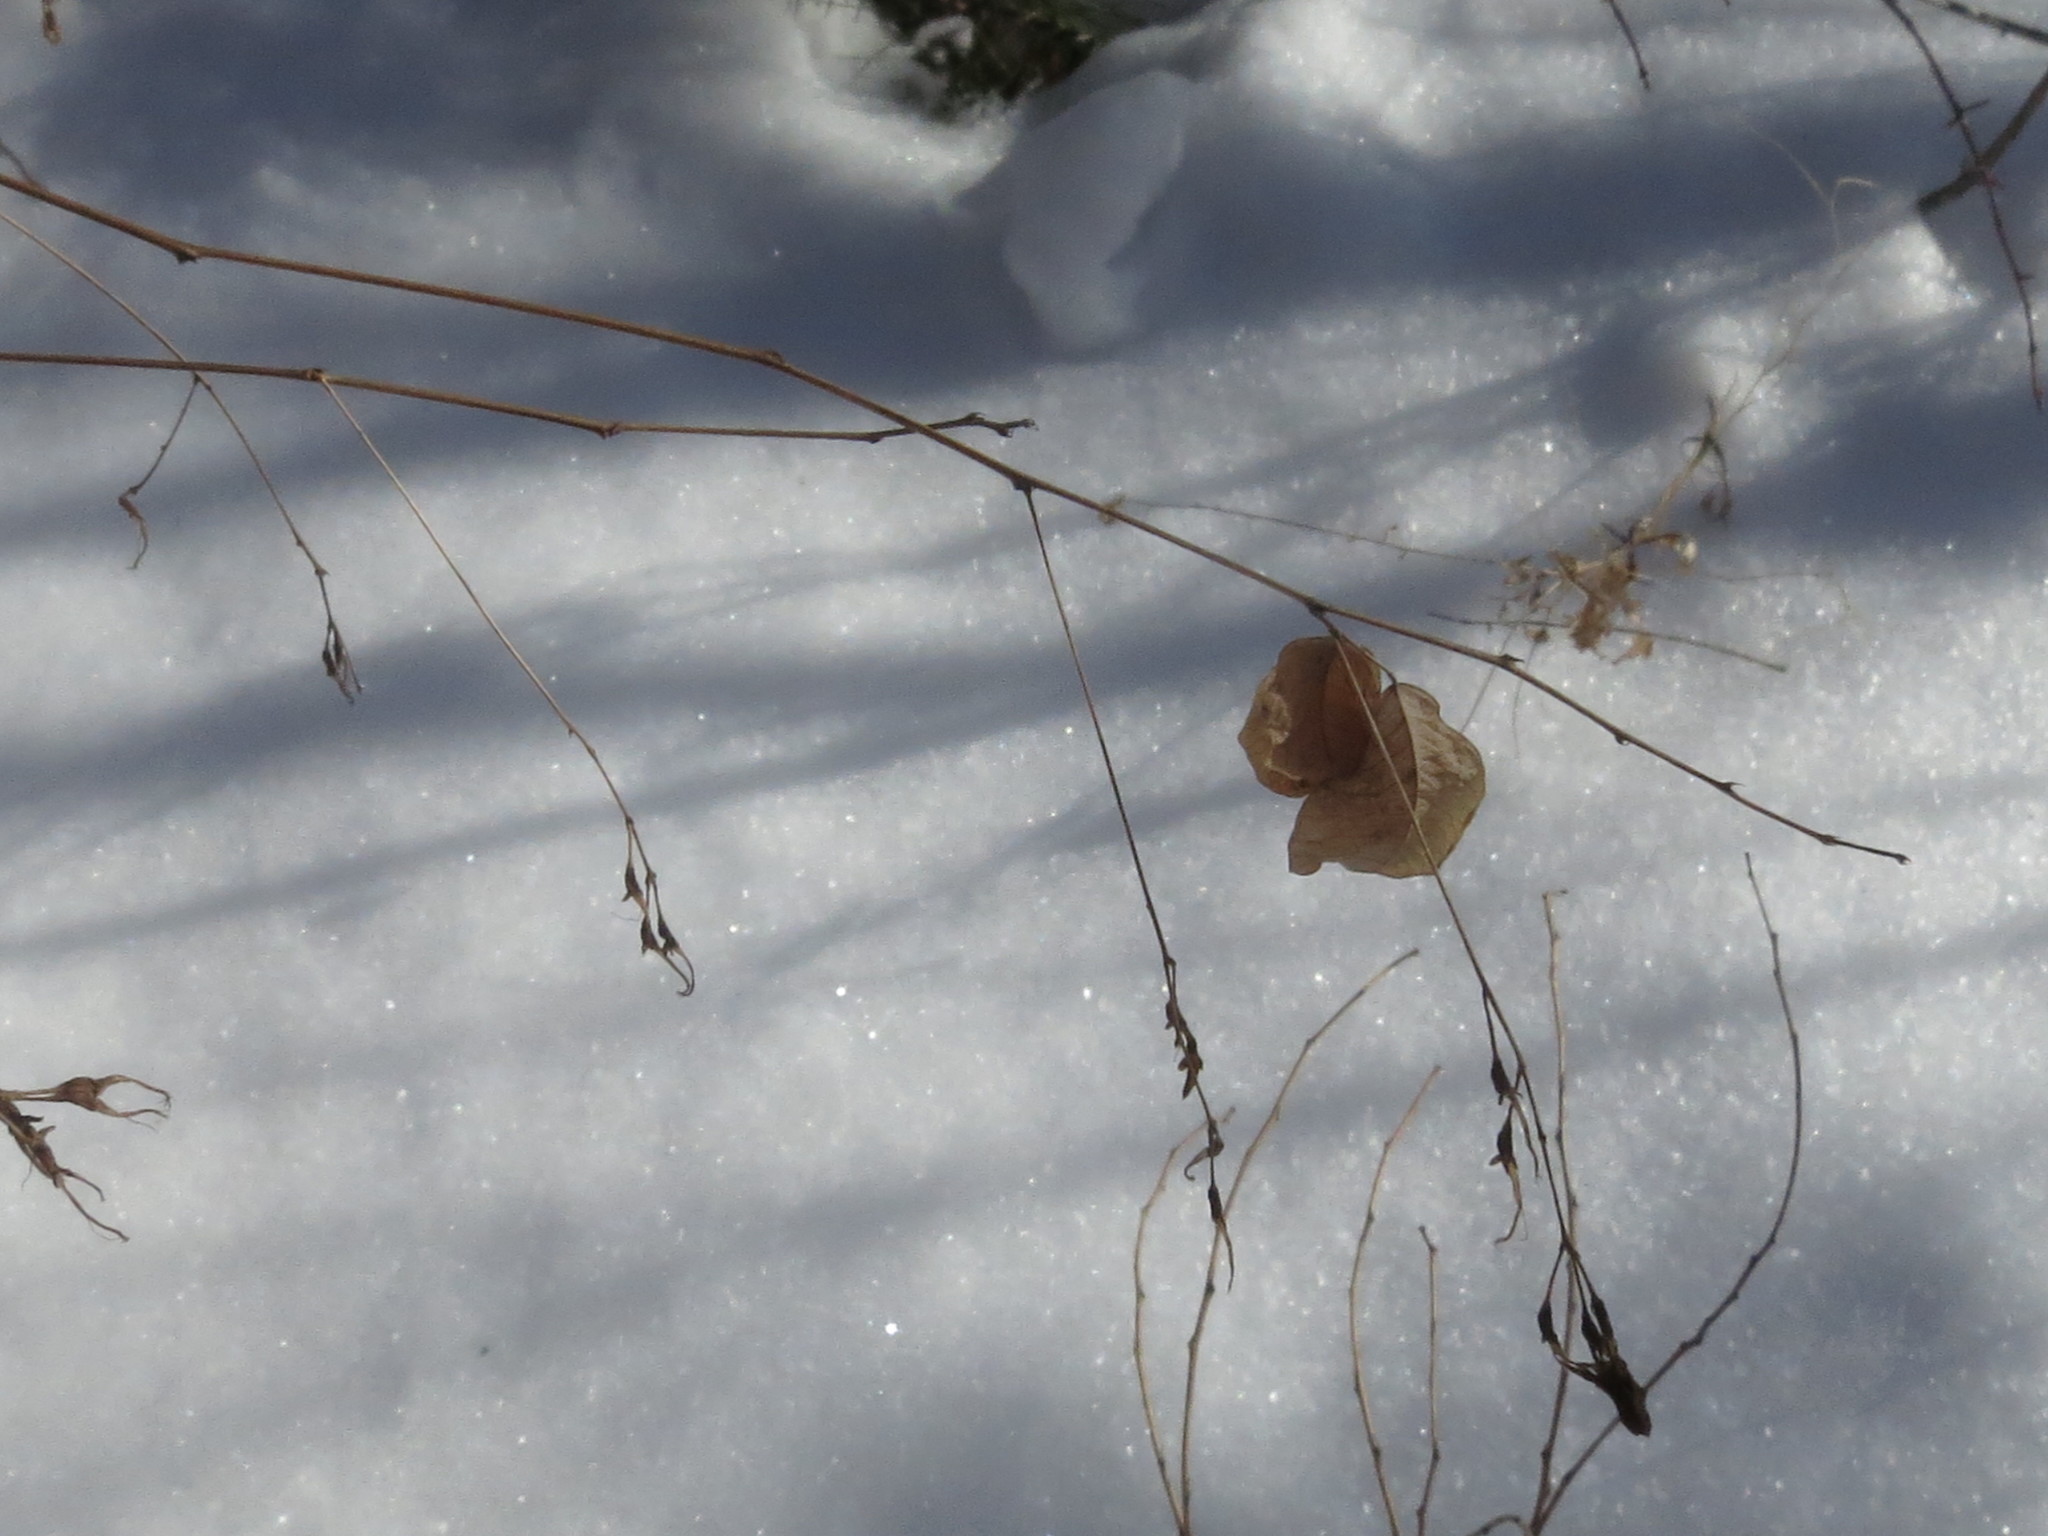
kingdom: Plantae
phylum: Tracheophyta
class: Magnoliopsida
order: Fabales
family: Fabaceae
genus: Lespedeza
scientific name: Lespedeza bicolor
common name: Shrub lespedeza
